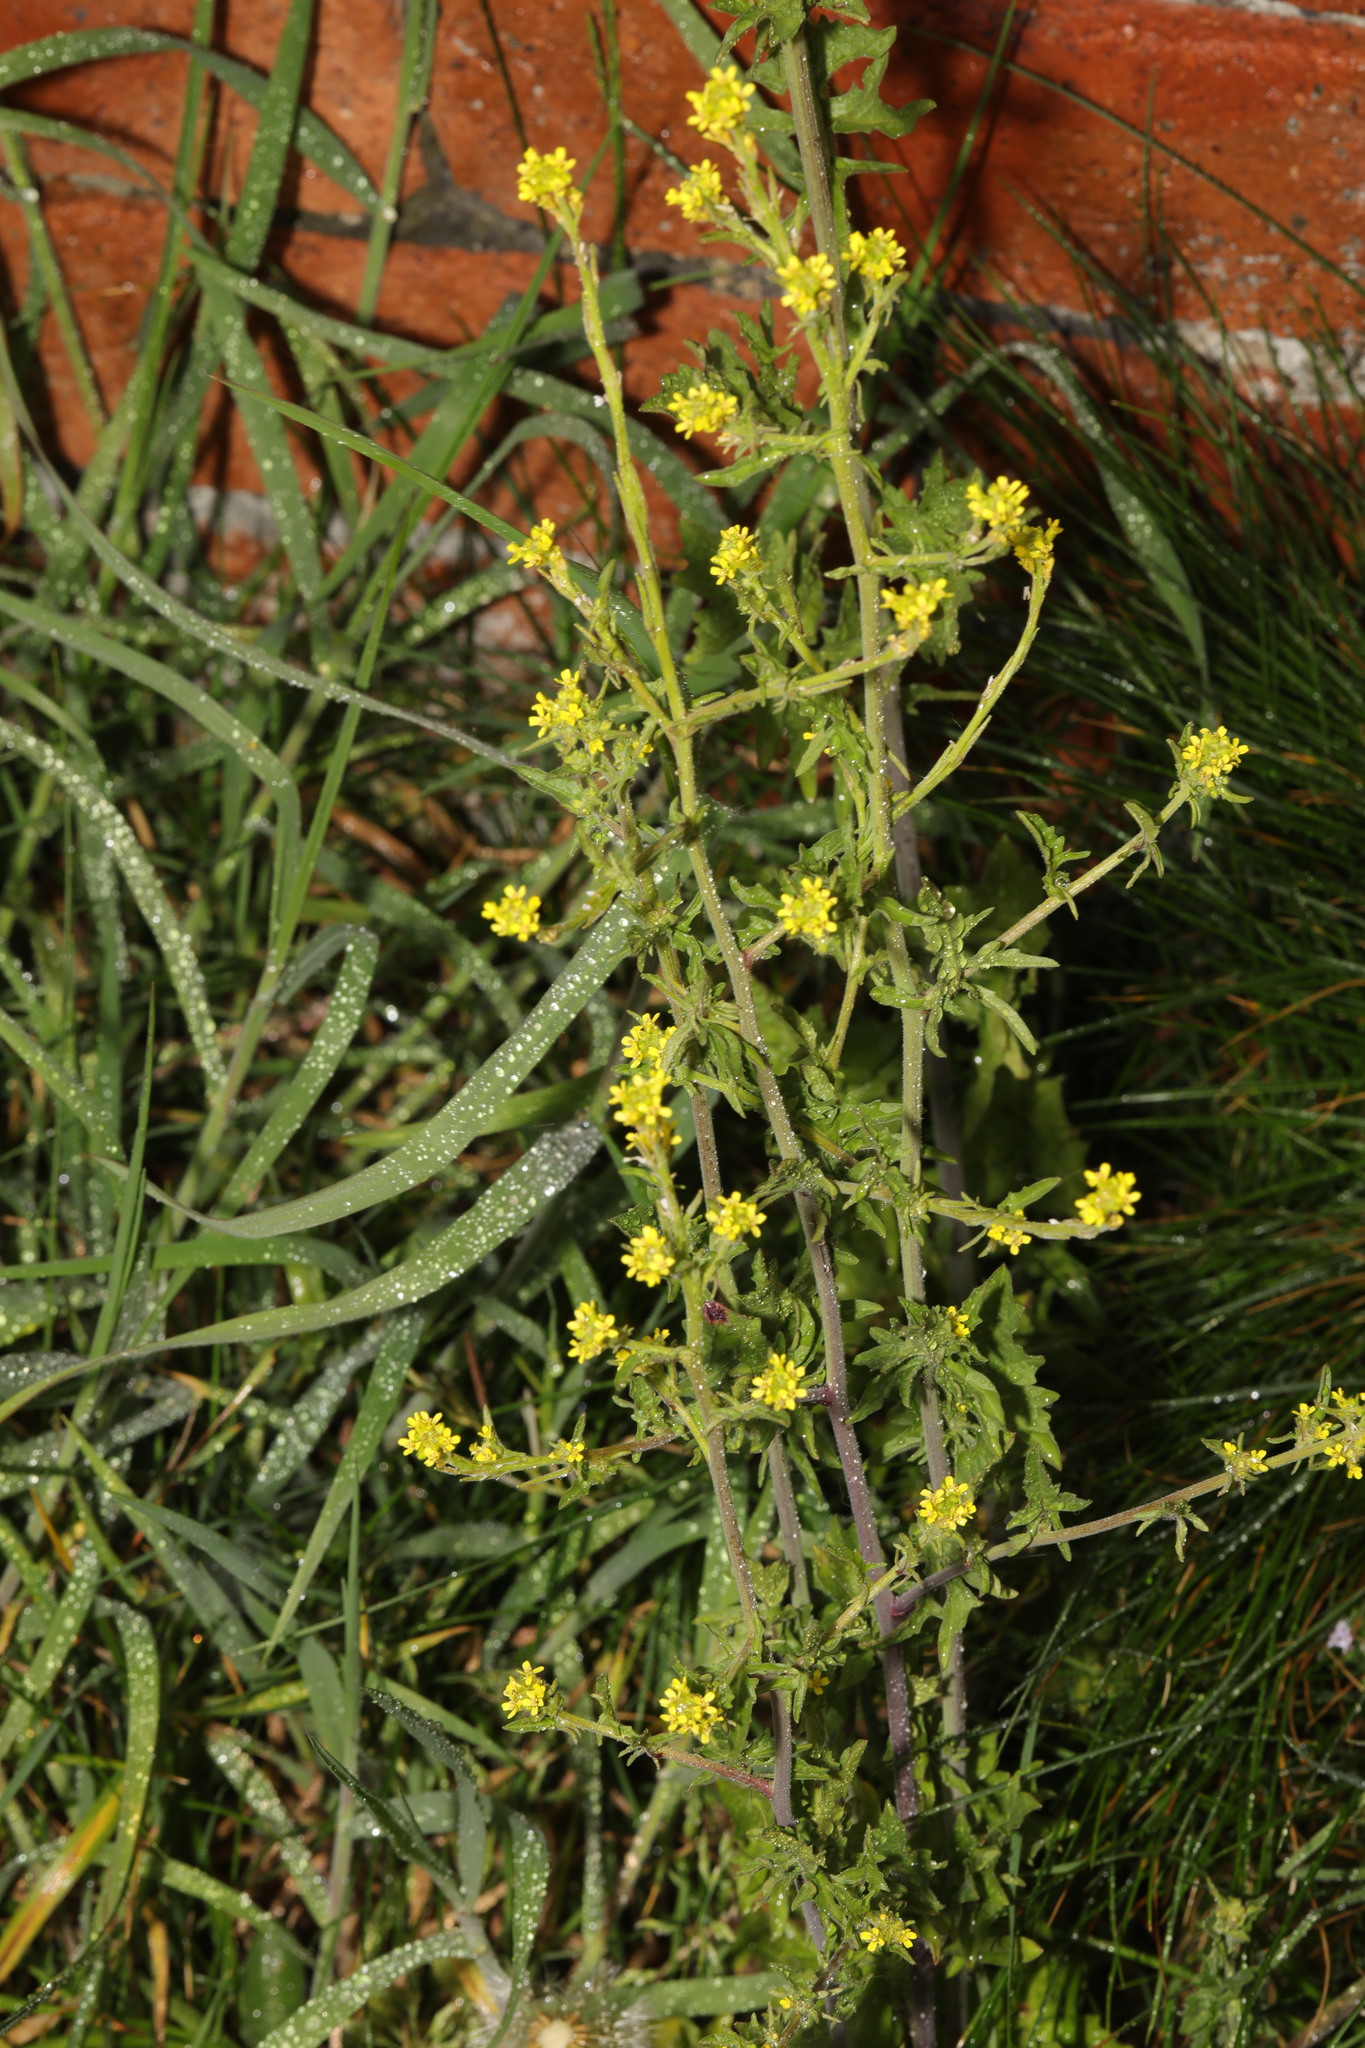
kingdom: Plantae
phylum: Tracheophyta
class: Magnoliopsida
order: Brassicales
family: Brassicaceae
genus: Sisymbrium
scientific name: Sisymbrium officinale
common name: Hedge mustard
